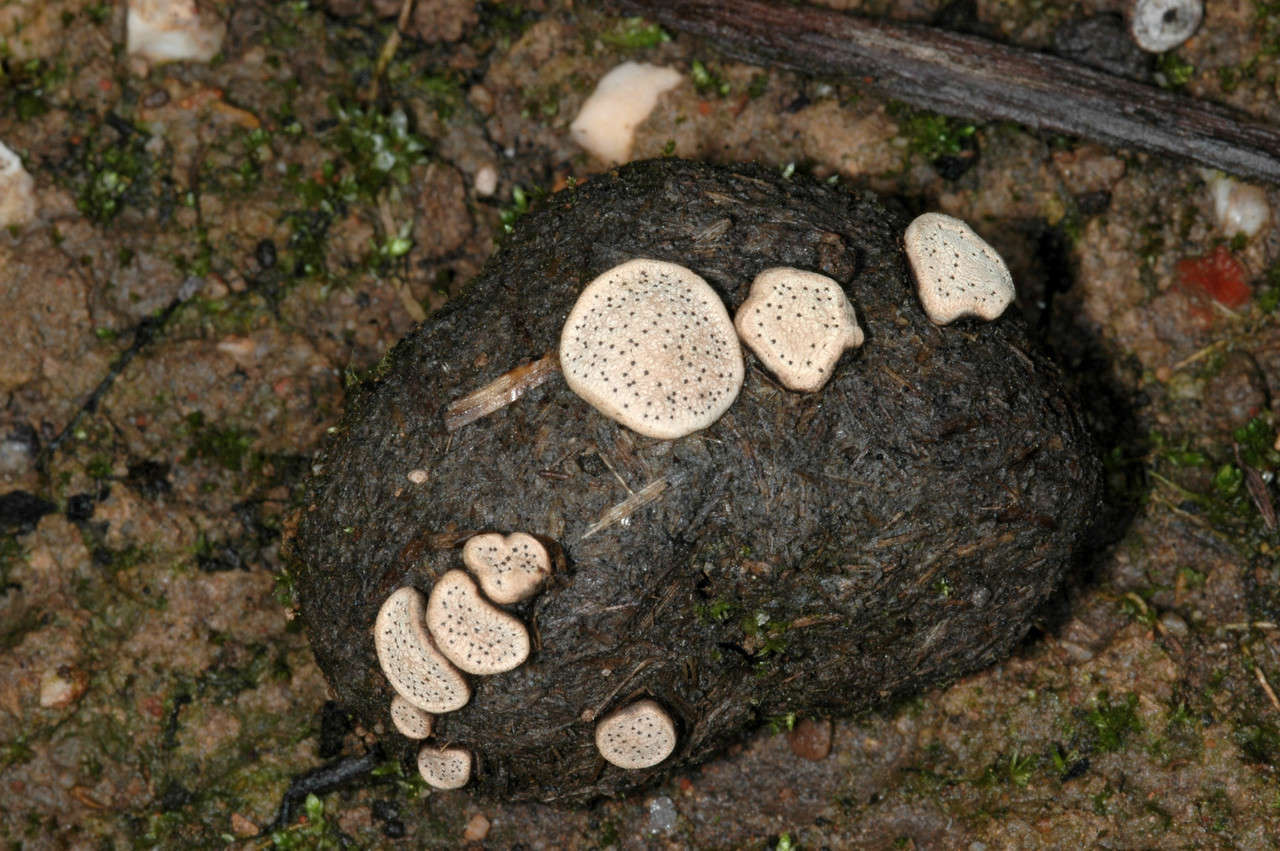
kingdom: Fungi
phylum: Ascomycota
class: Sordariomycetes
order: Xylariales
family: Xylariaceae
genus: Poronia
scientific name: Poronia erici
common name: Dung button
